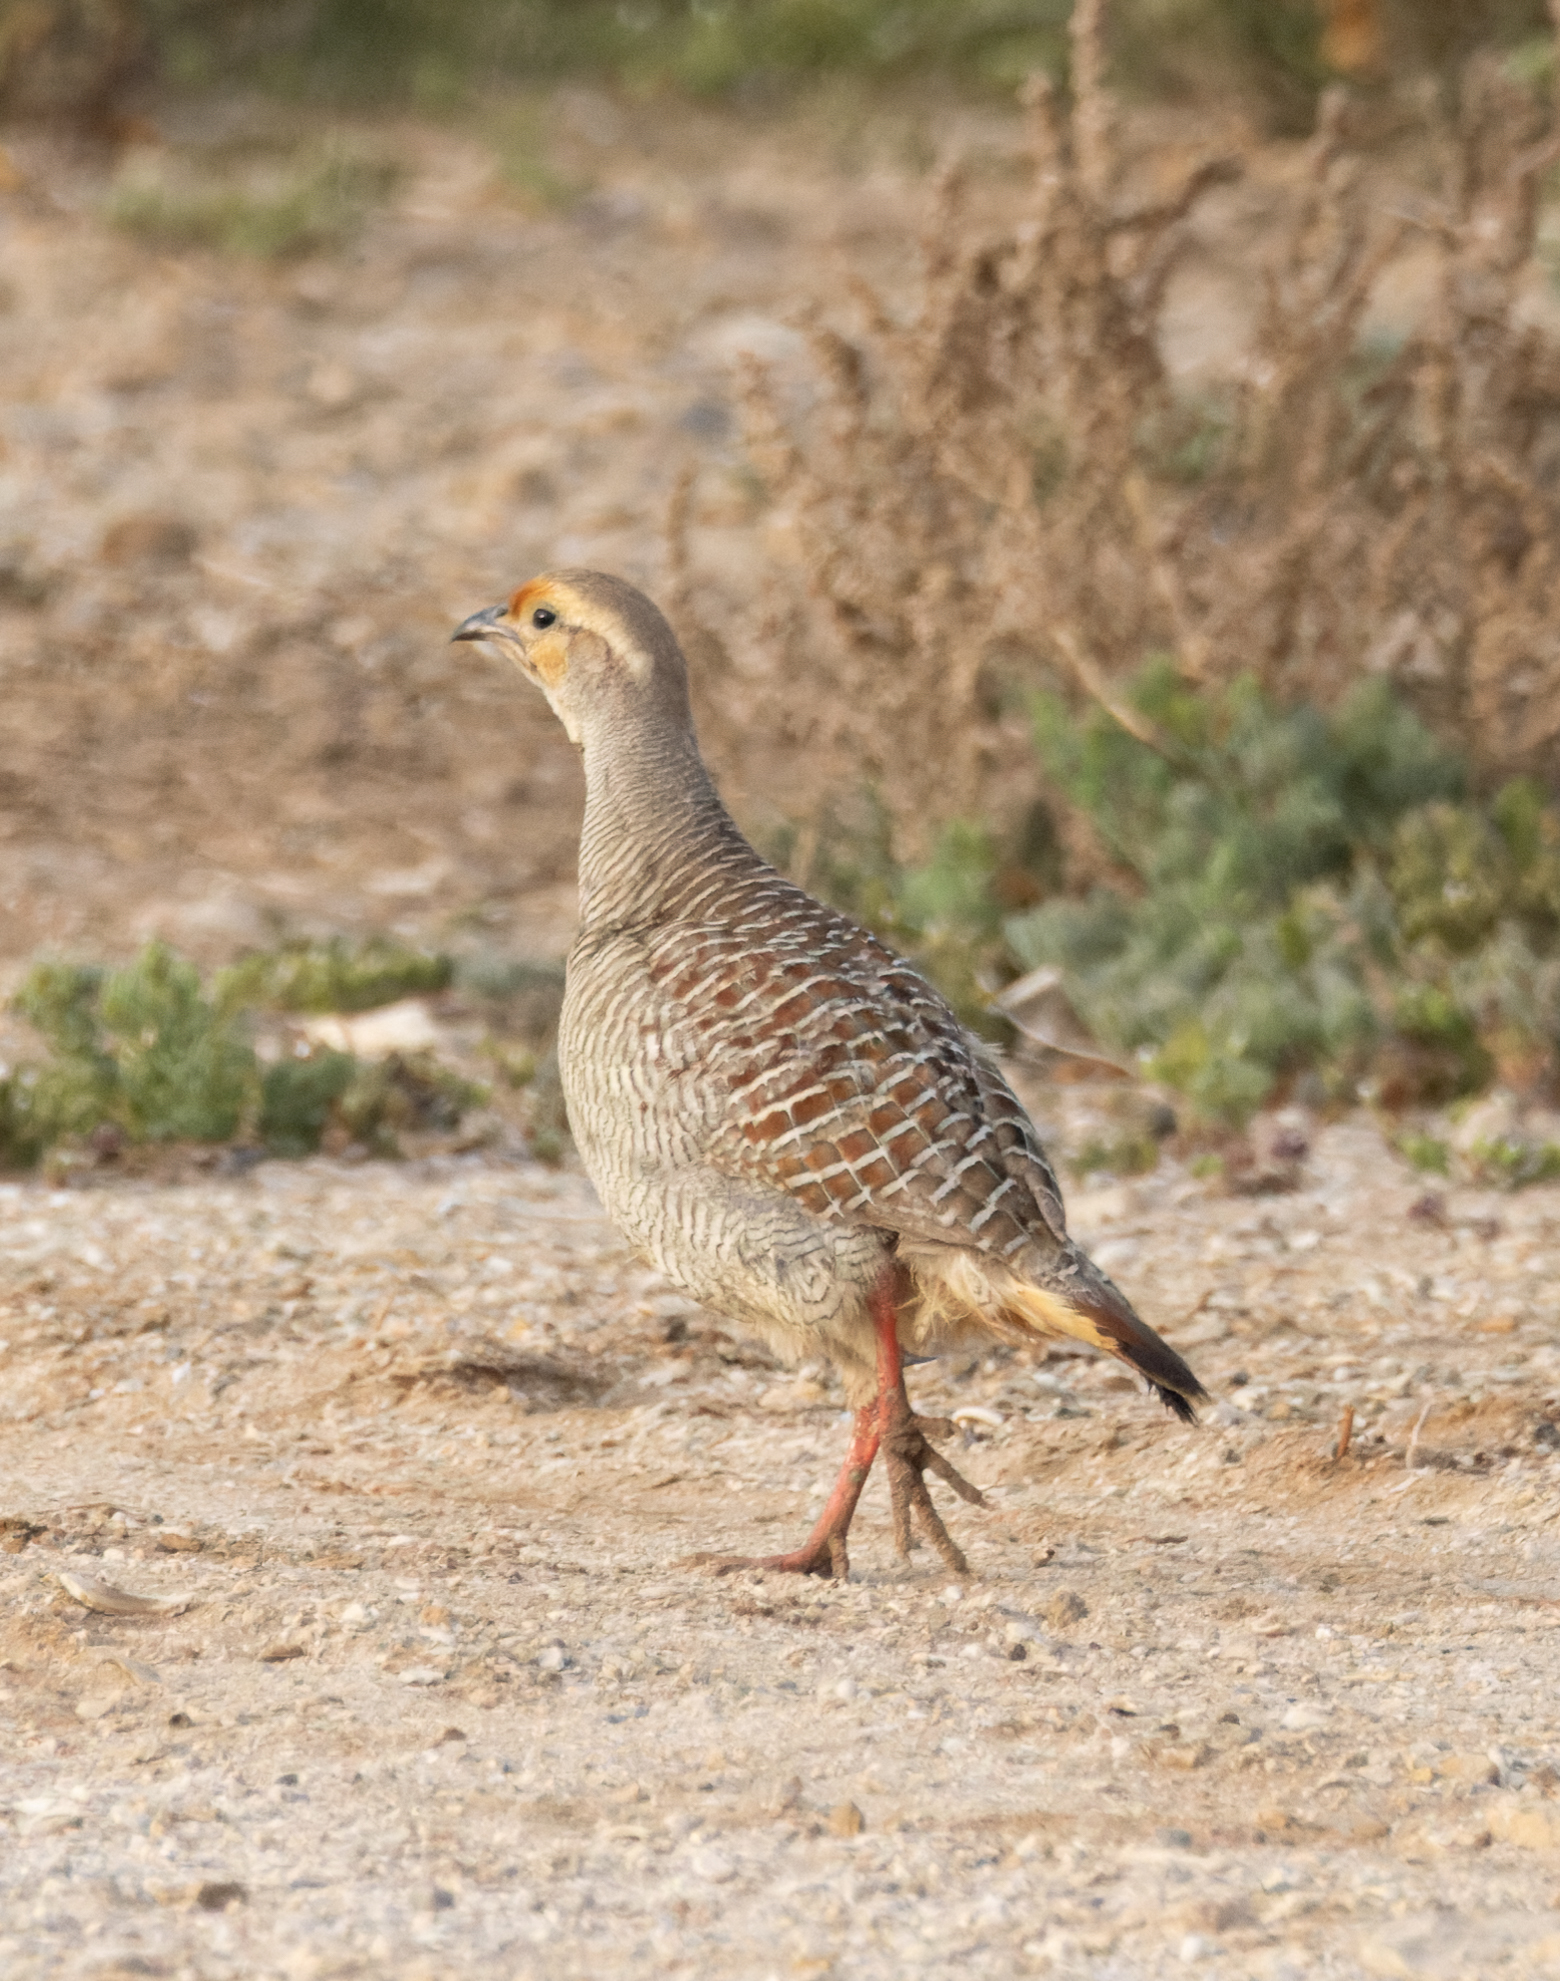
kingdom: Animalia
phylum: Chordata
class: Aves
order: Galliformes
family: Phasianidae
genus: Ortygornis
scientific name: Ortygornis pondicerianus
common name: Grey francolin
